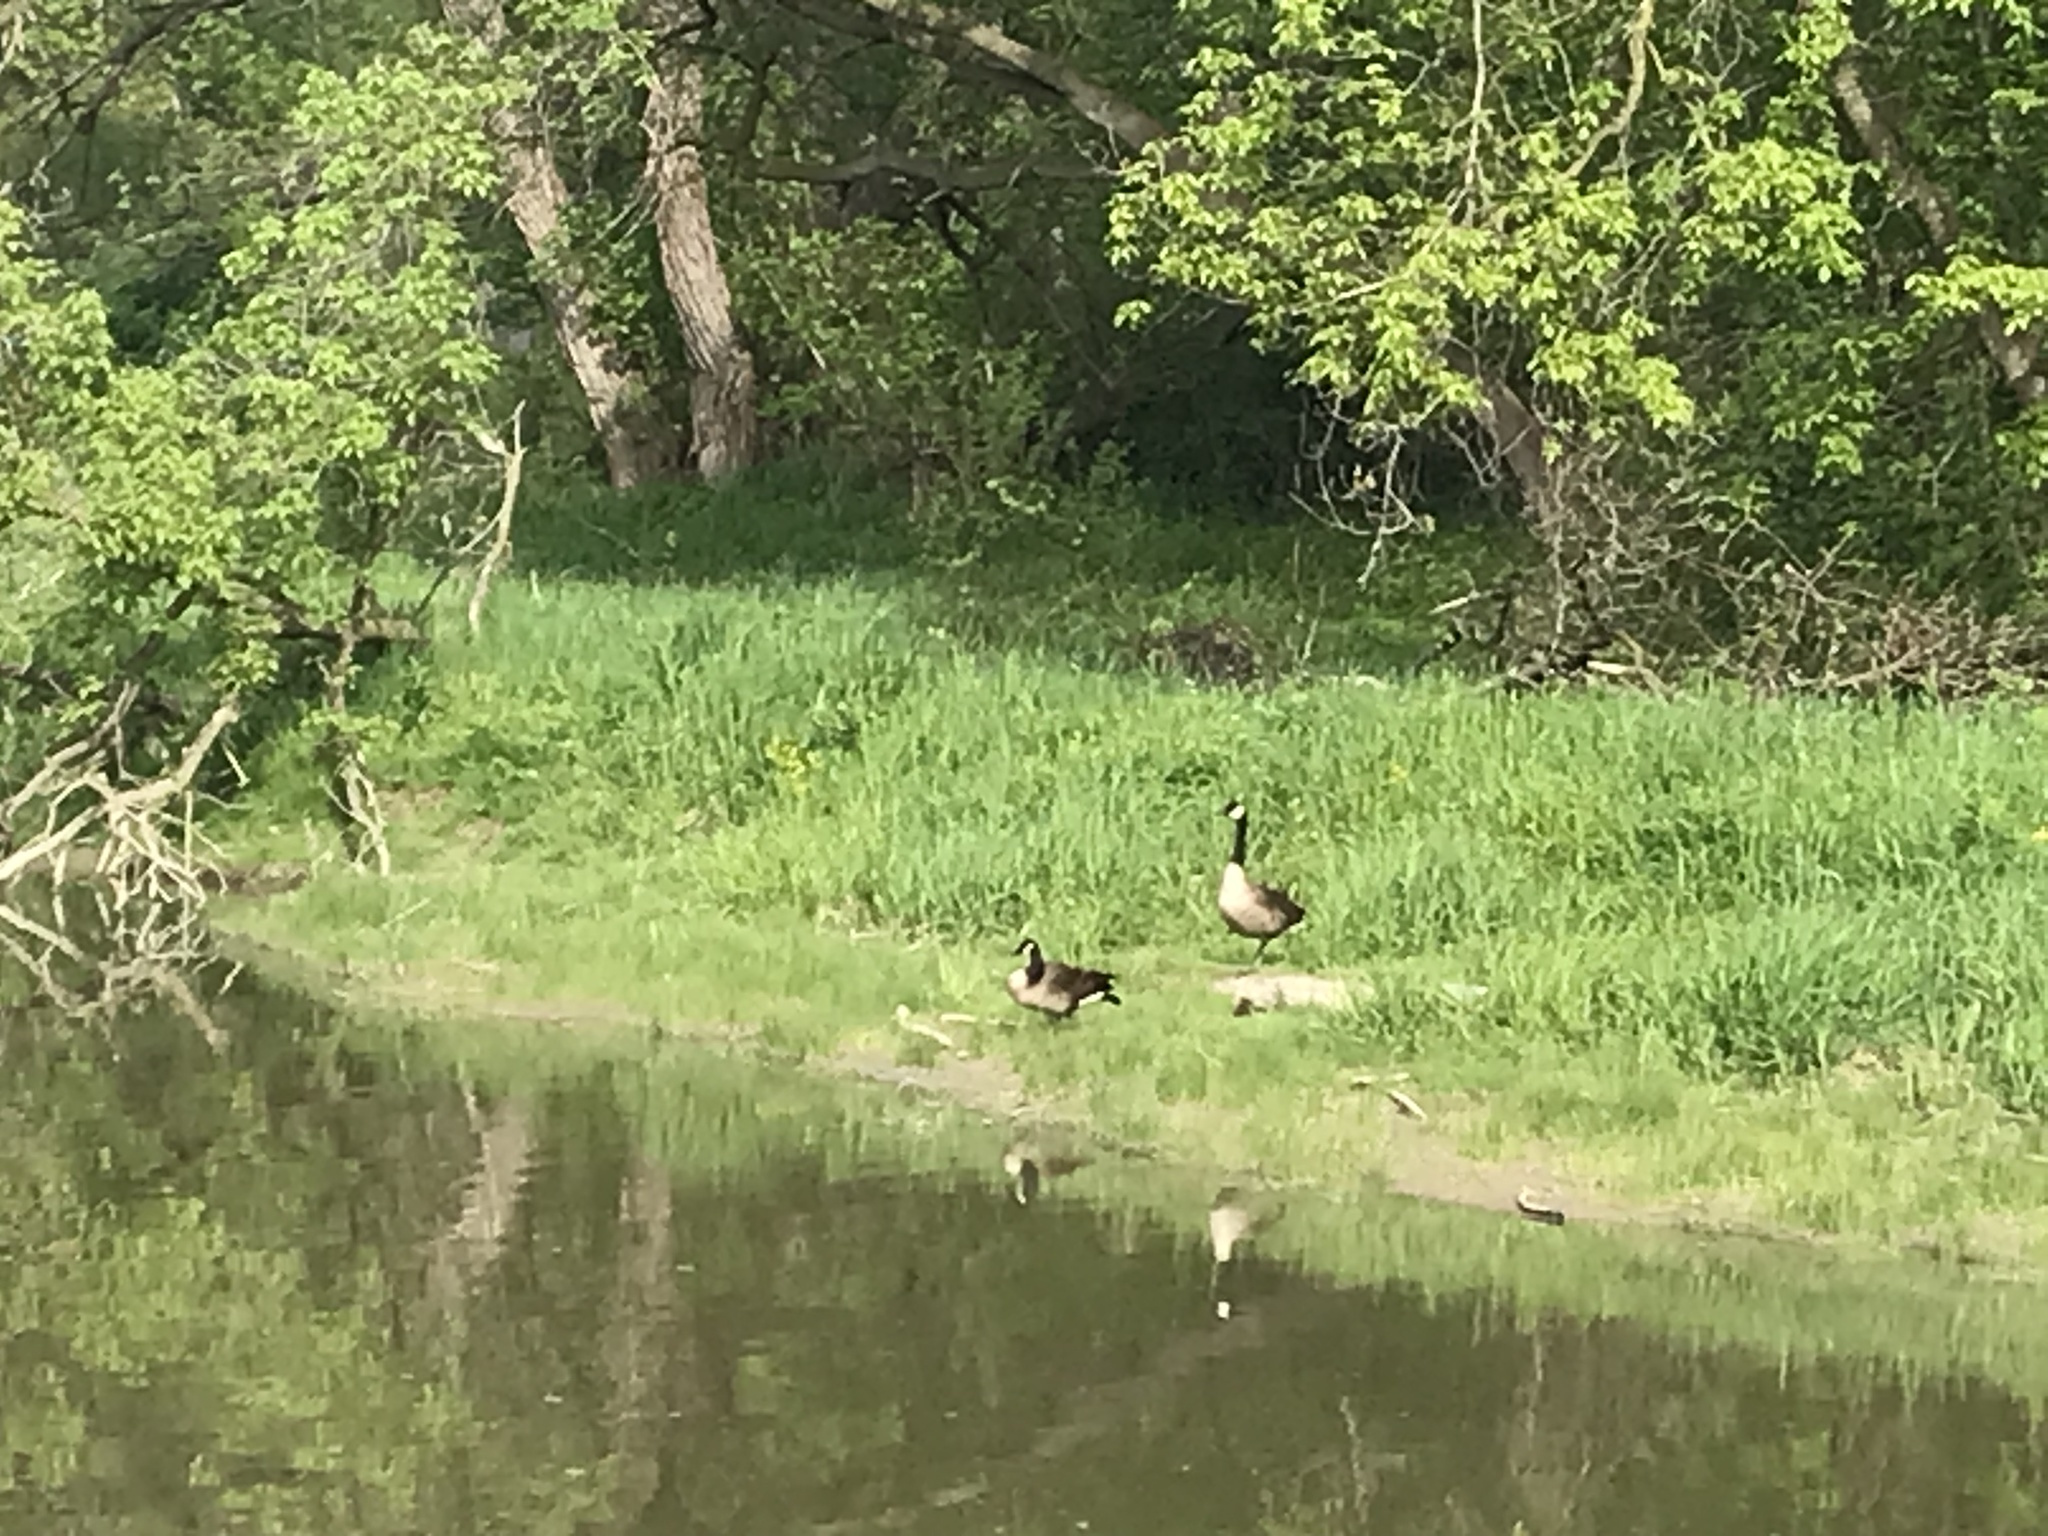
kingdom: Animalia
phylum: Chordata
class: Aves
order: Anseriformes
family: Anatidae
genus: Branta
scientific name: Branta canadensis
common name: Canada goose
